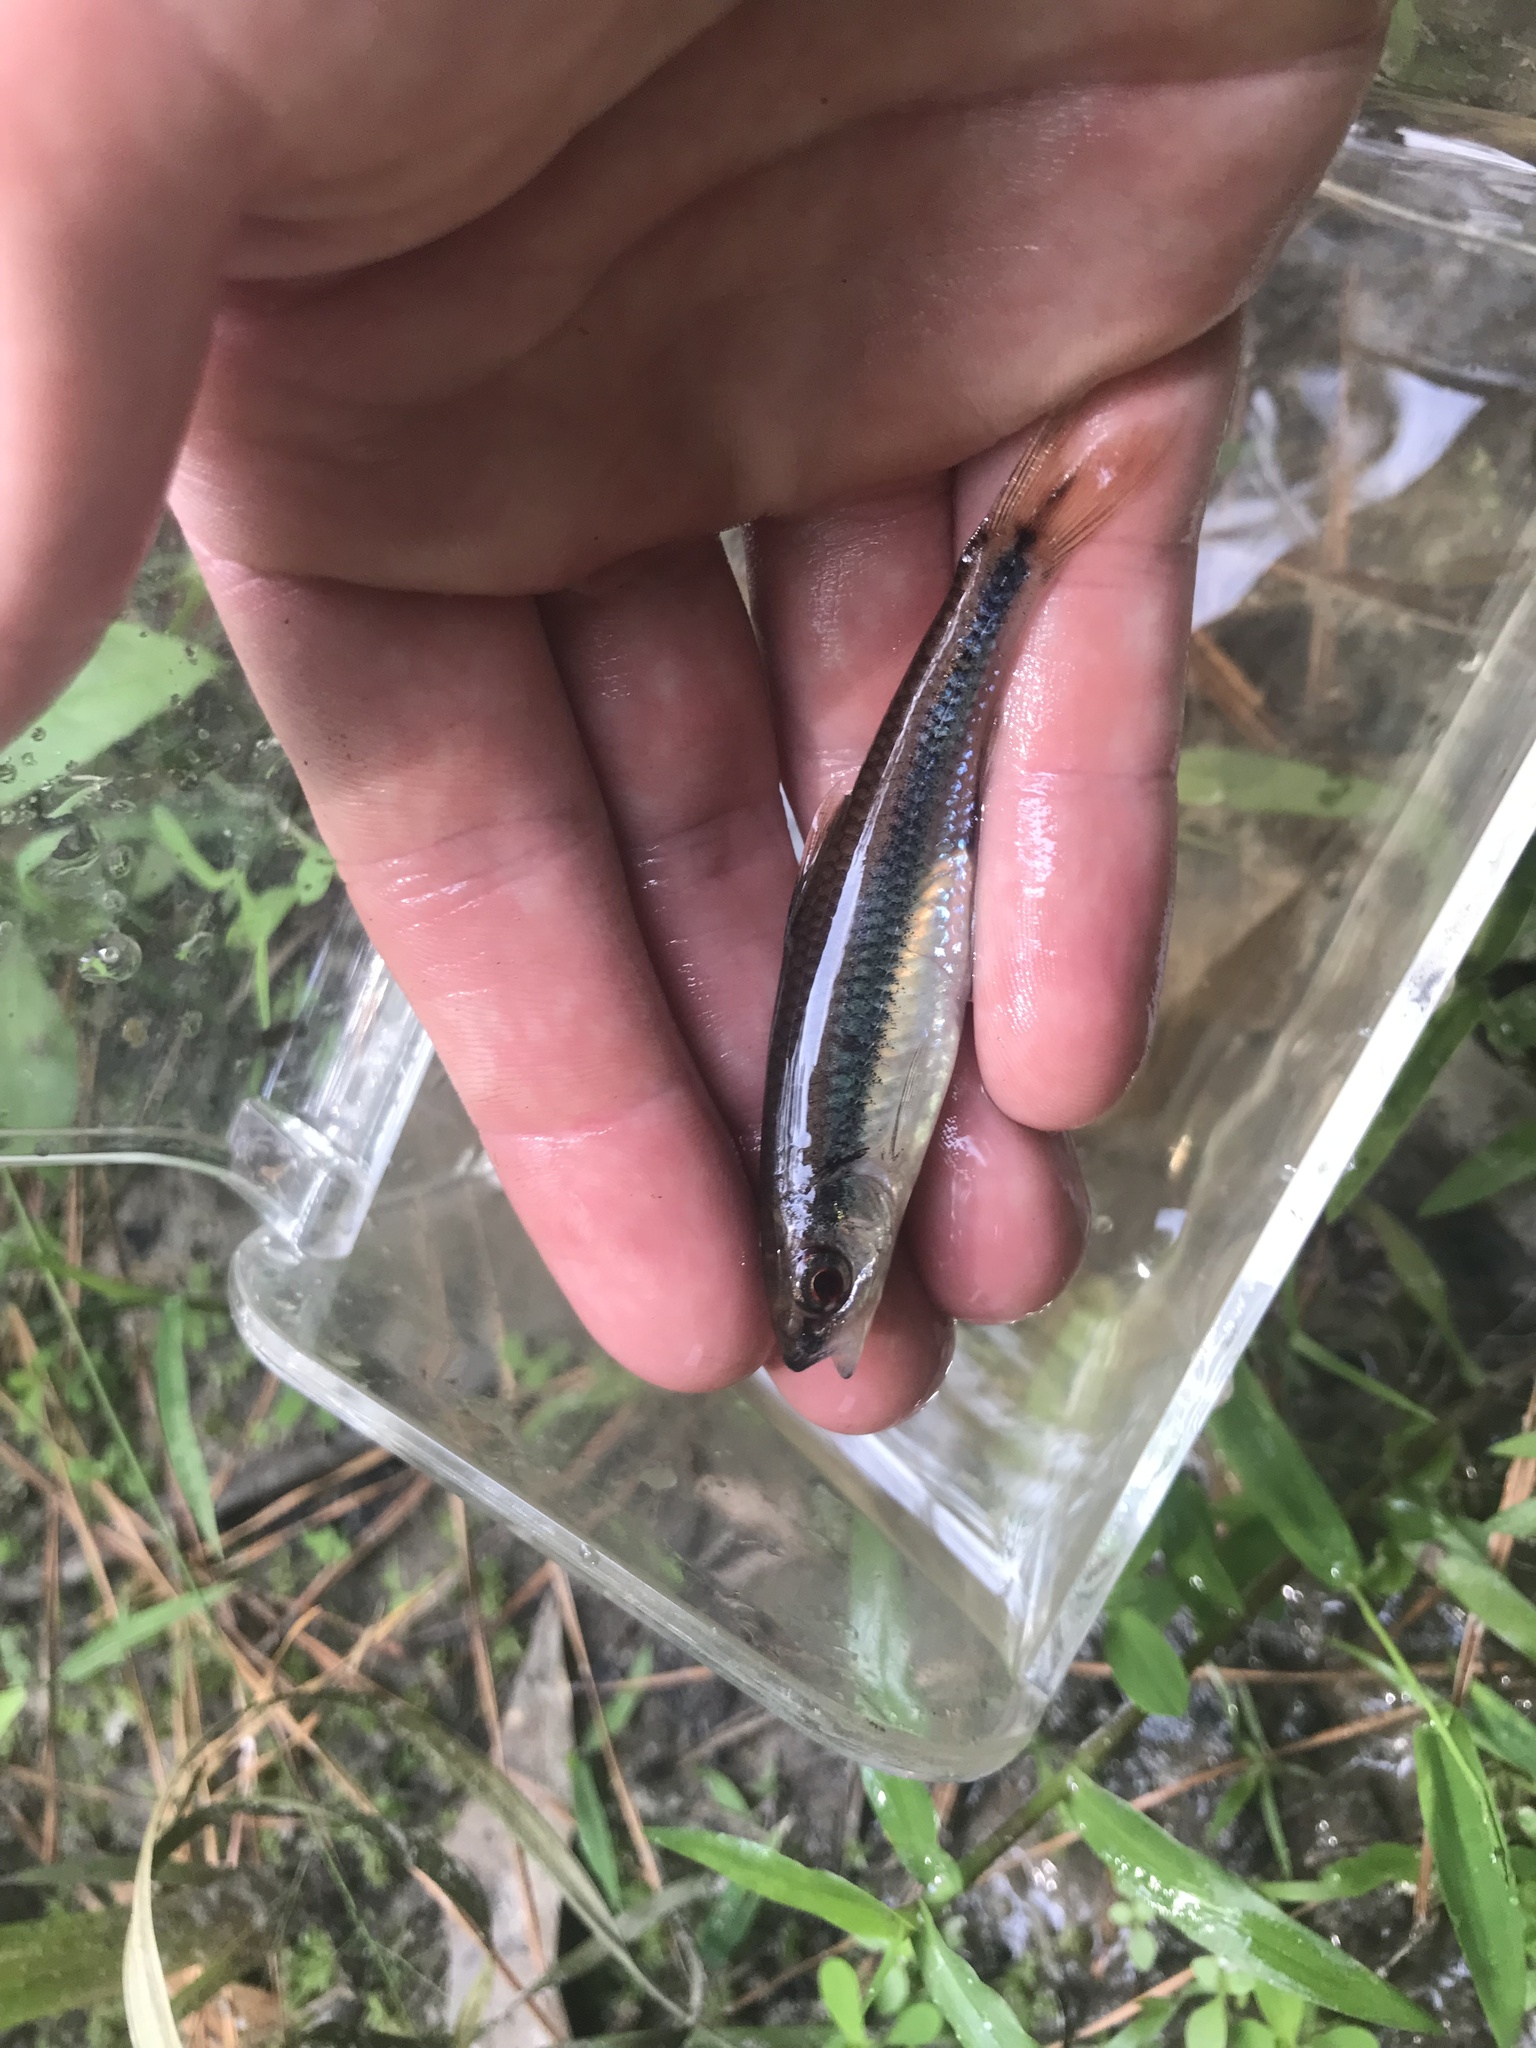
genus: Alburnops
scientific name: Alburnops
